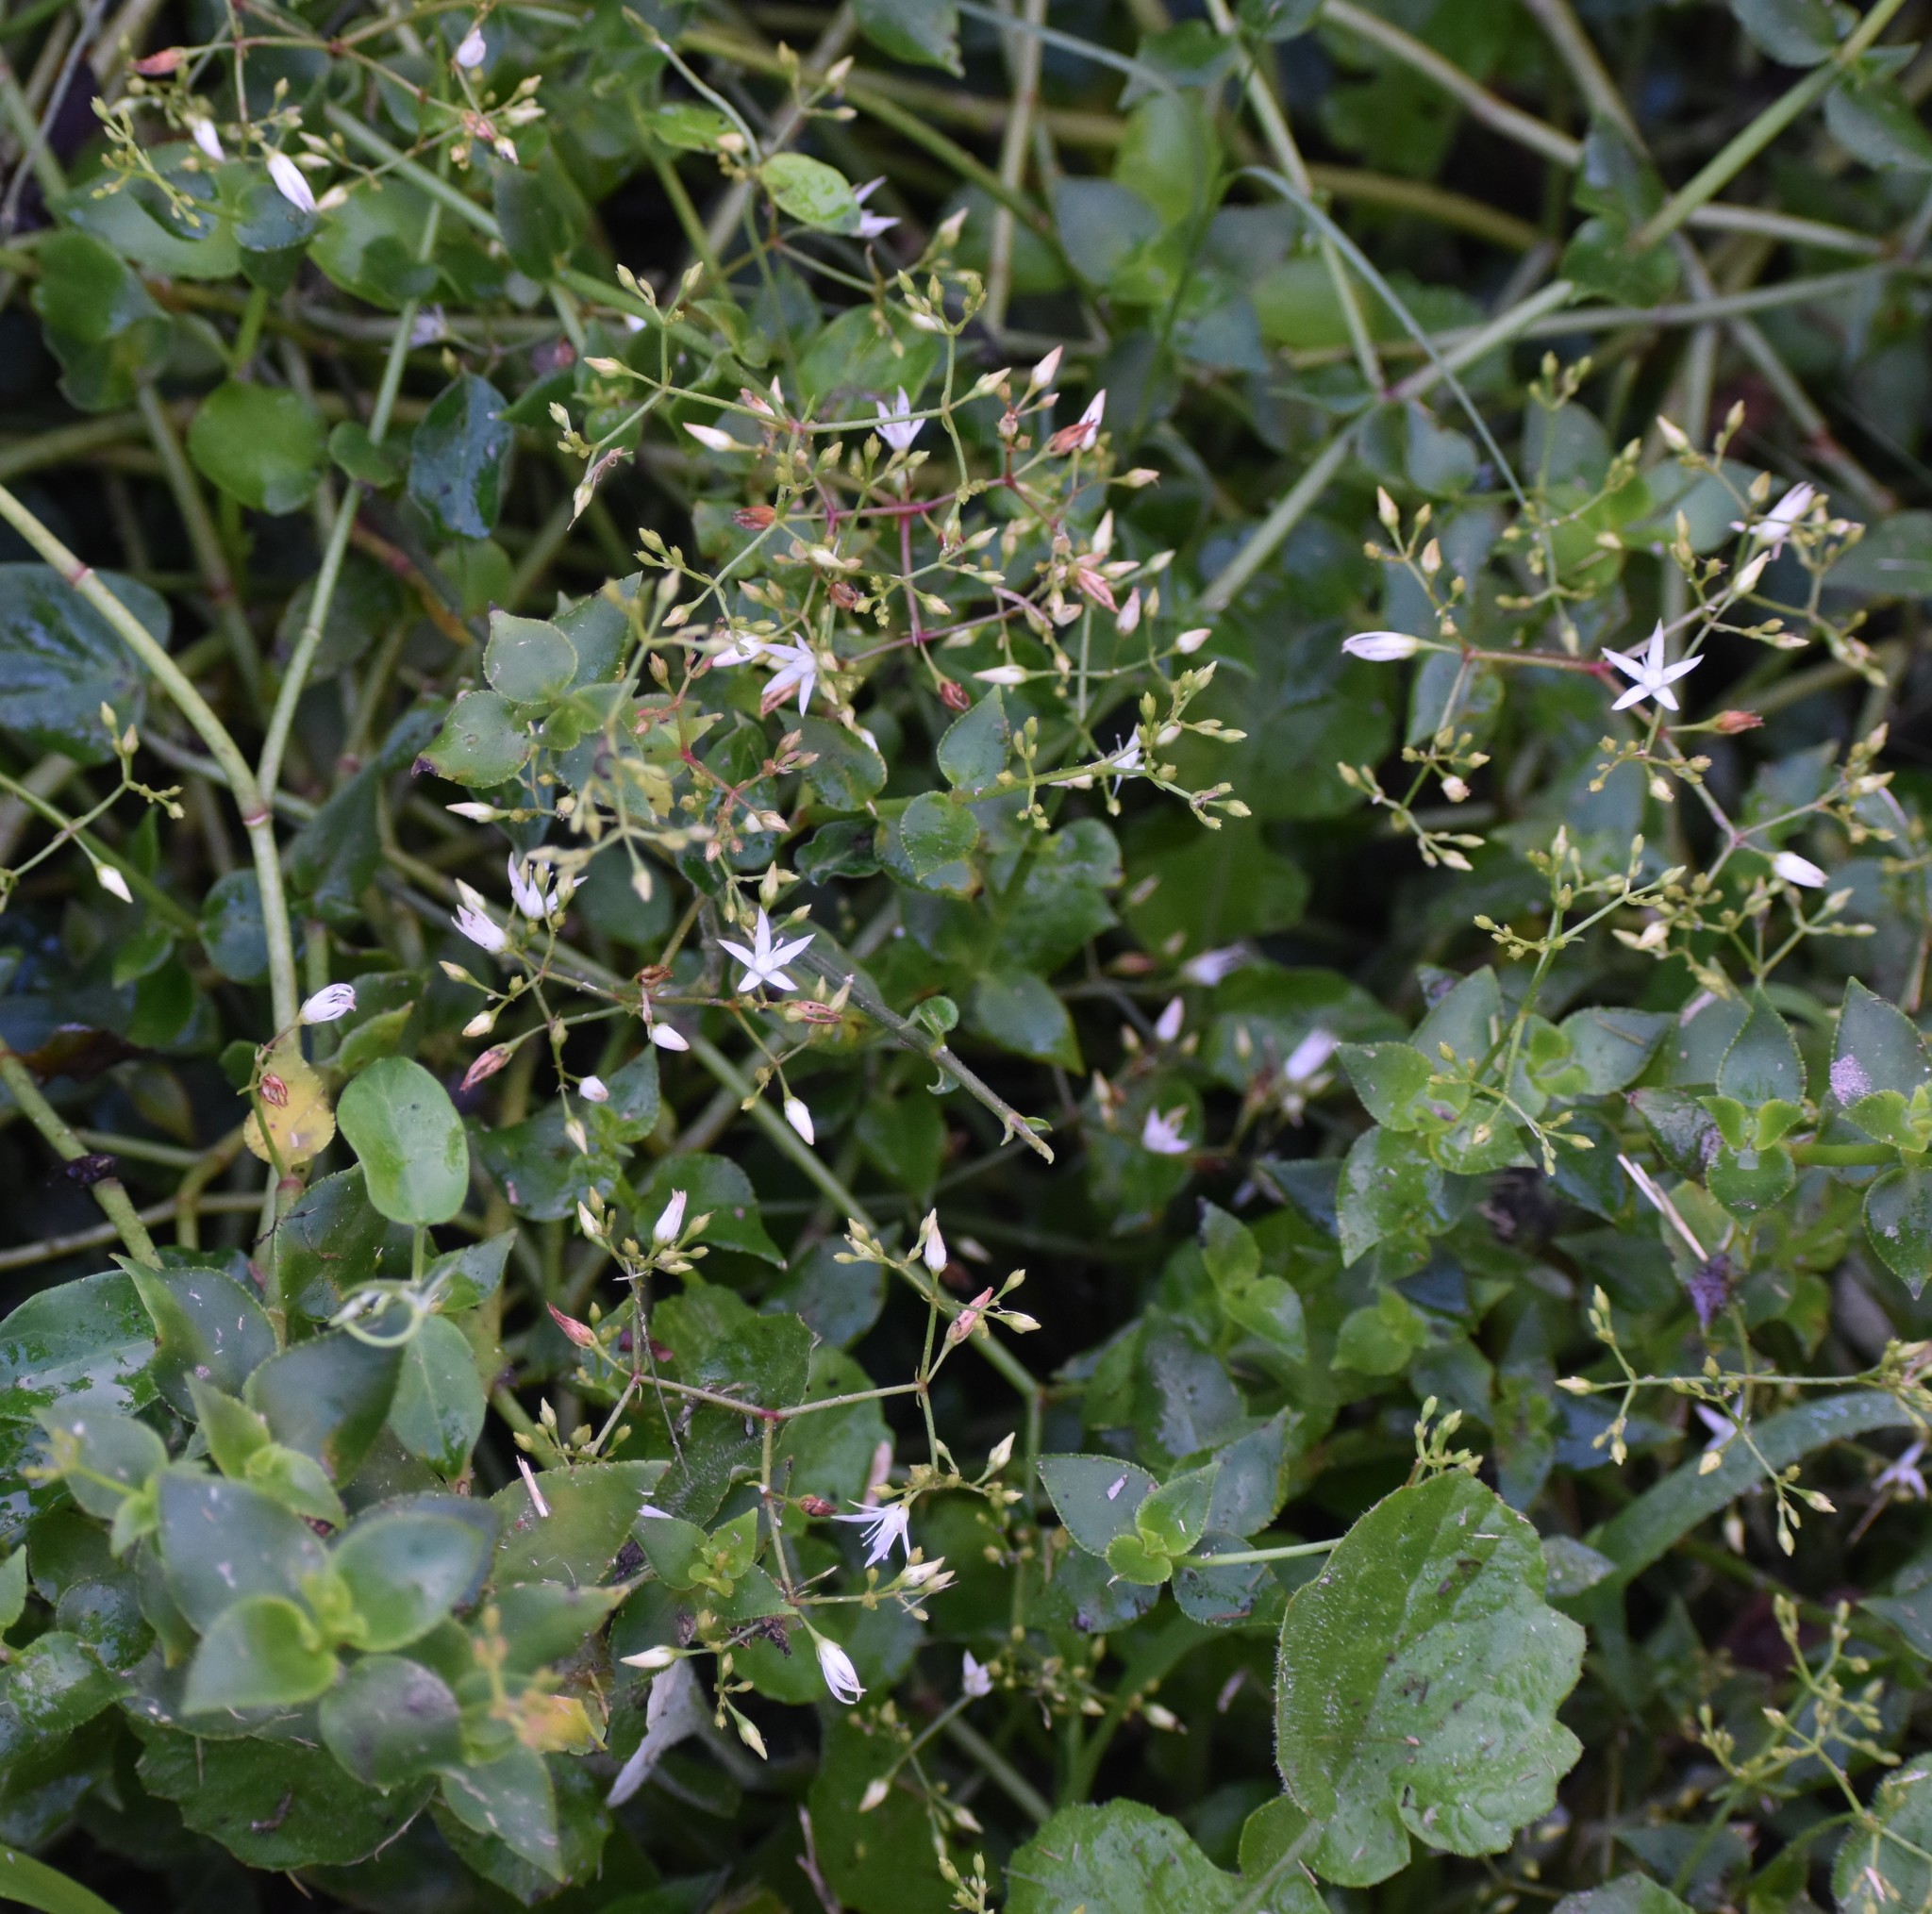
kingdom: Plantae
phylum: Tracheophyta
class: Magnoliopsida
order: Saxifragales
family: Crassulaceae
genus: Crassula
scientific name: Crassula sarmentosa
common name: Jade-tree
